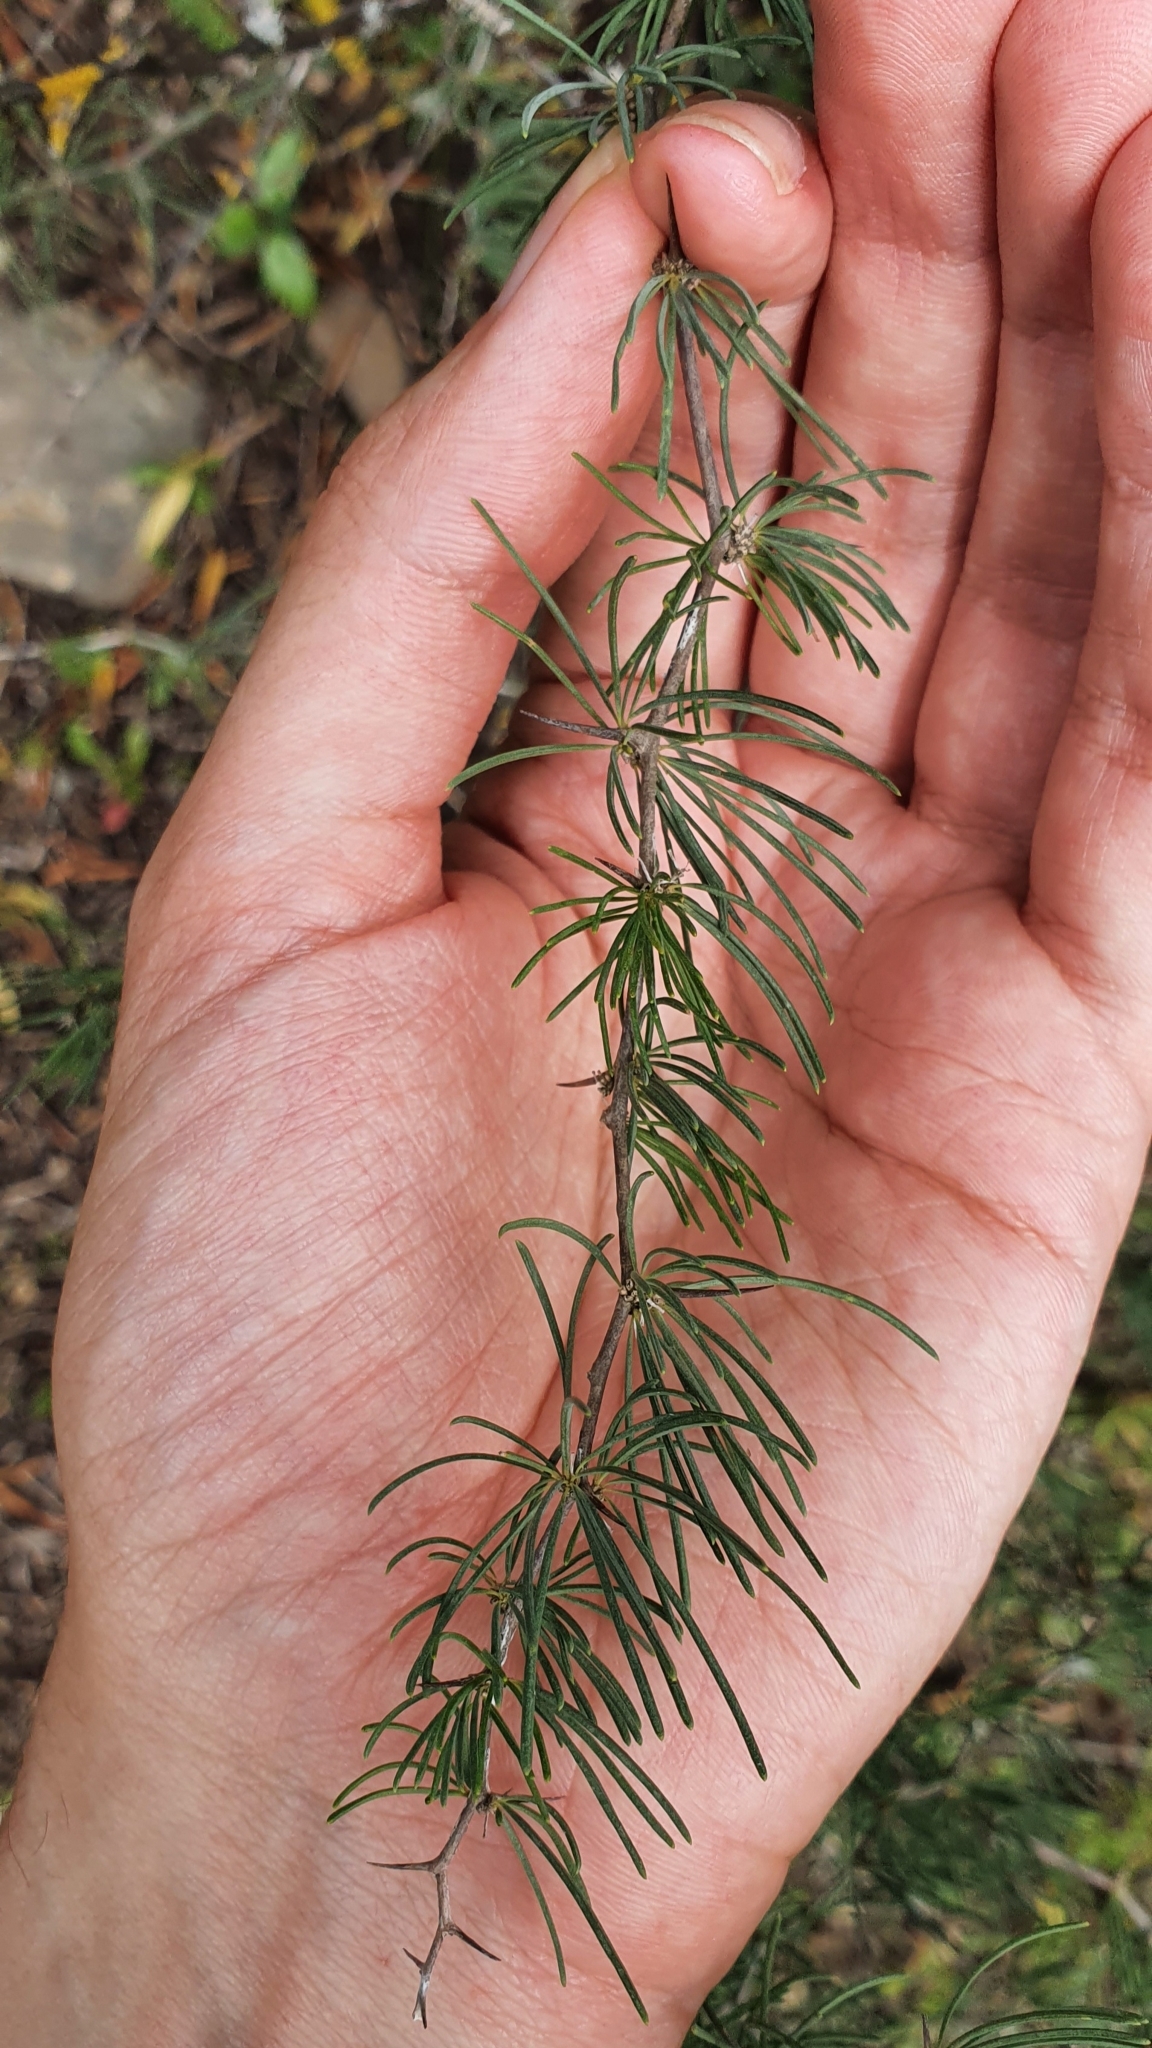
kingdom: Plantae
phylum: Tracheophyta
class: Liliopsida
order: Asparagales
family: Asparagaceae
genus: Asparagus
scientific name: Asparagus albus
